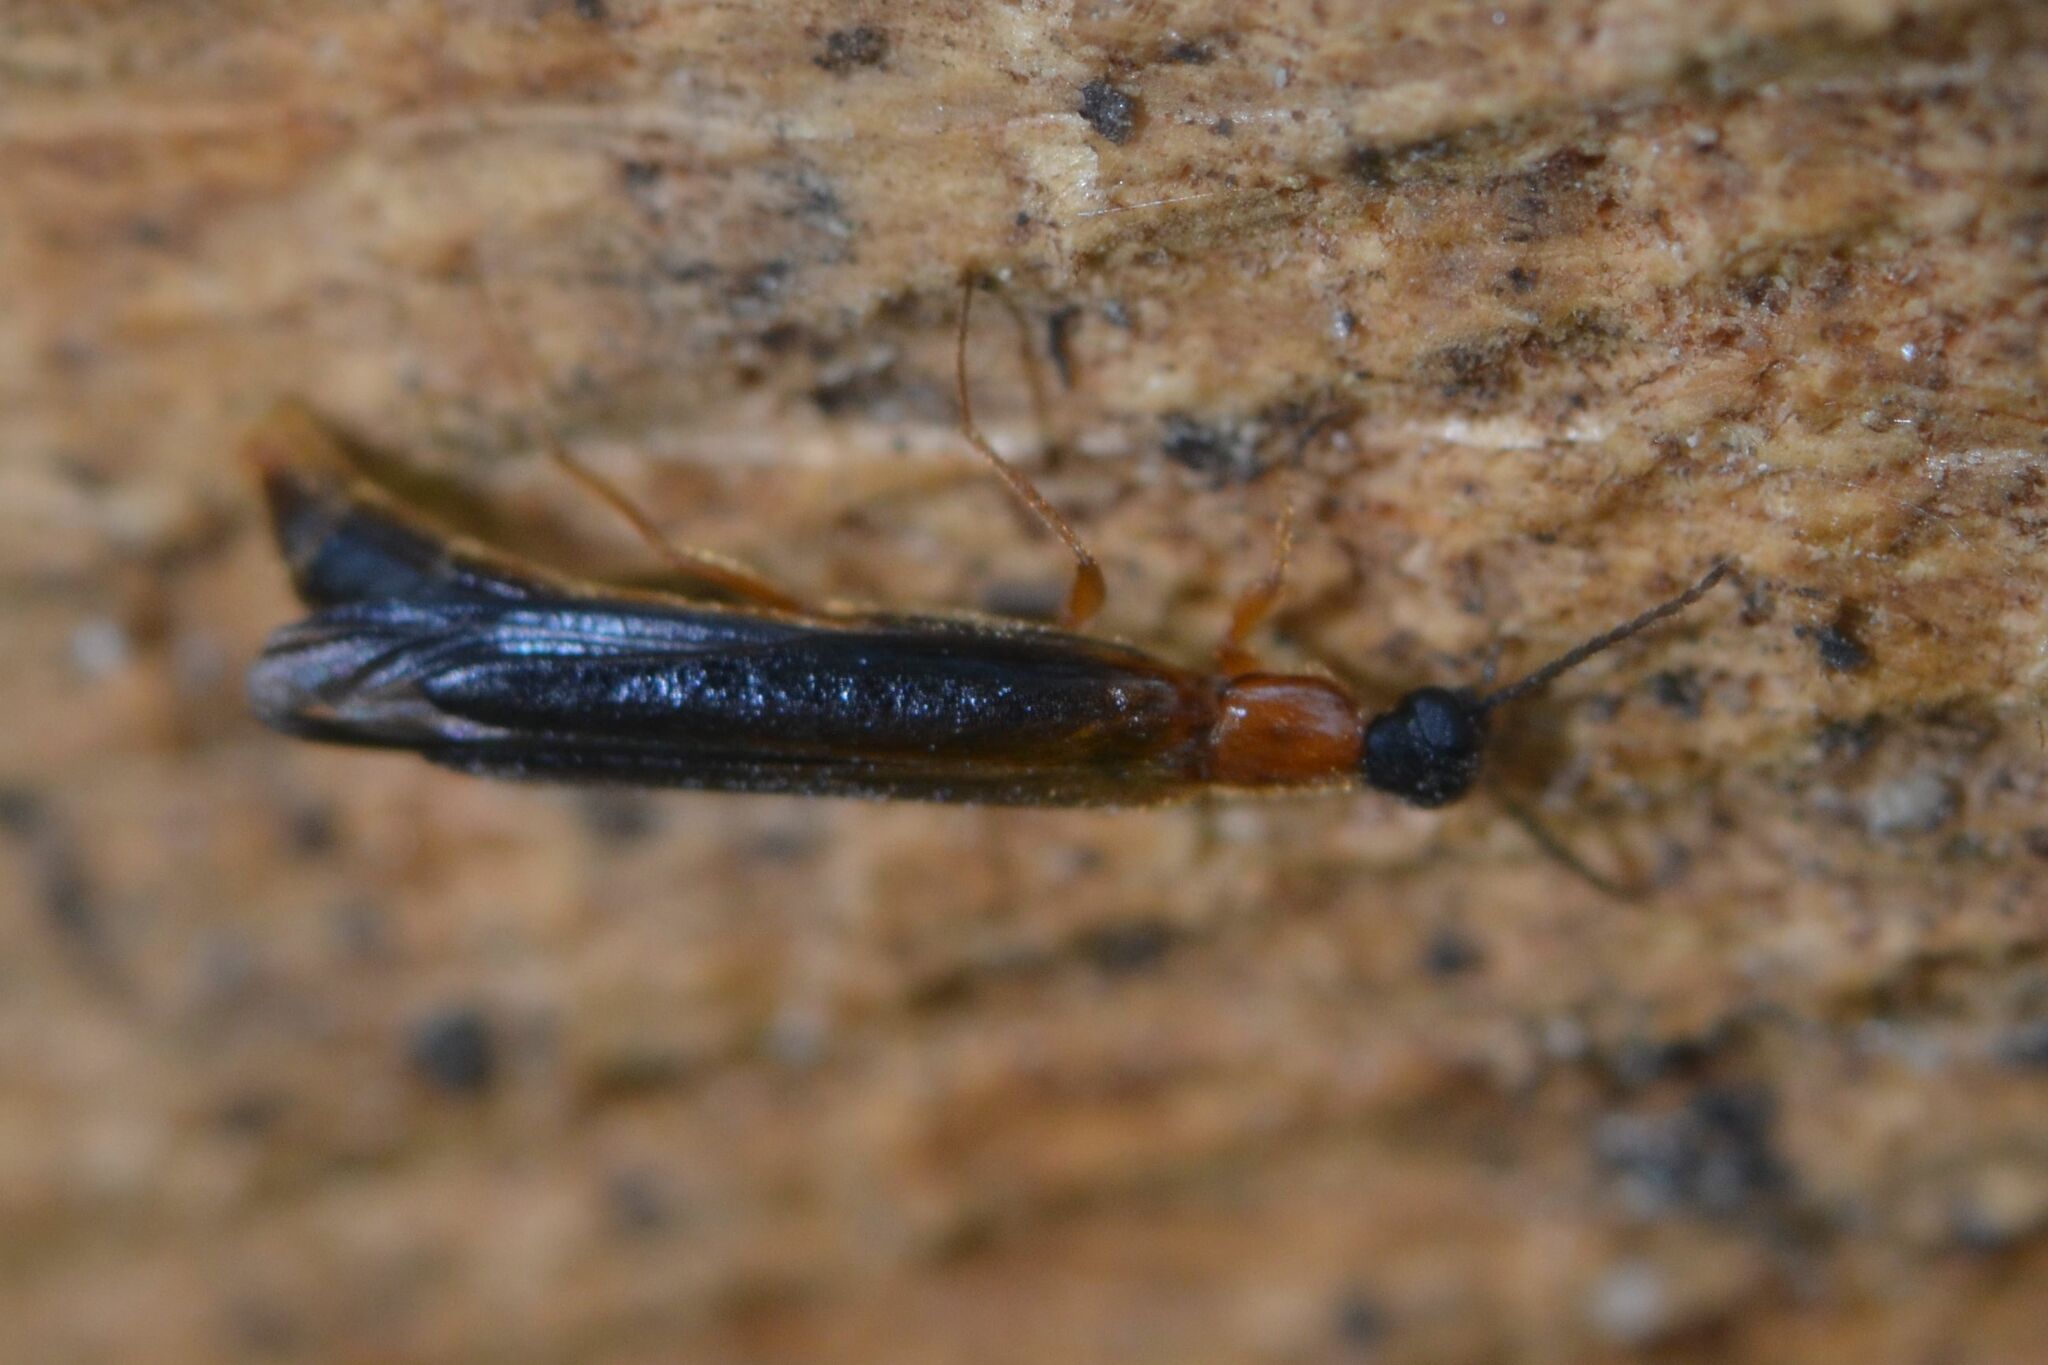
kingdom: Animalia
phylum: Arthropoda
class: Insecta
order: Coleoptera
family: Lymexylidae
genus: Lymexylon
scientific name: Lymexylon navale
